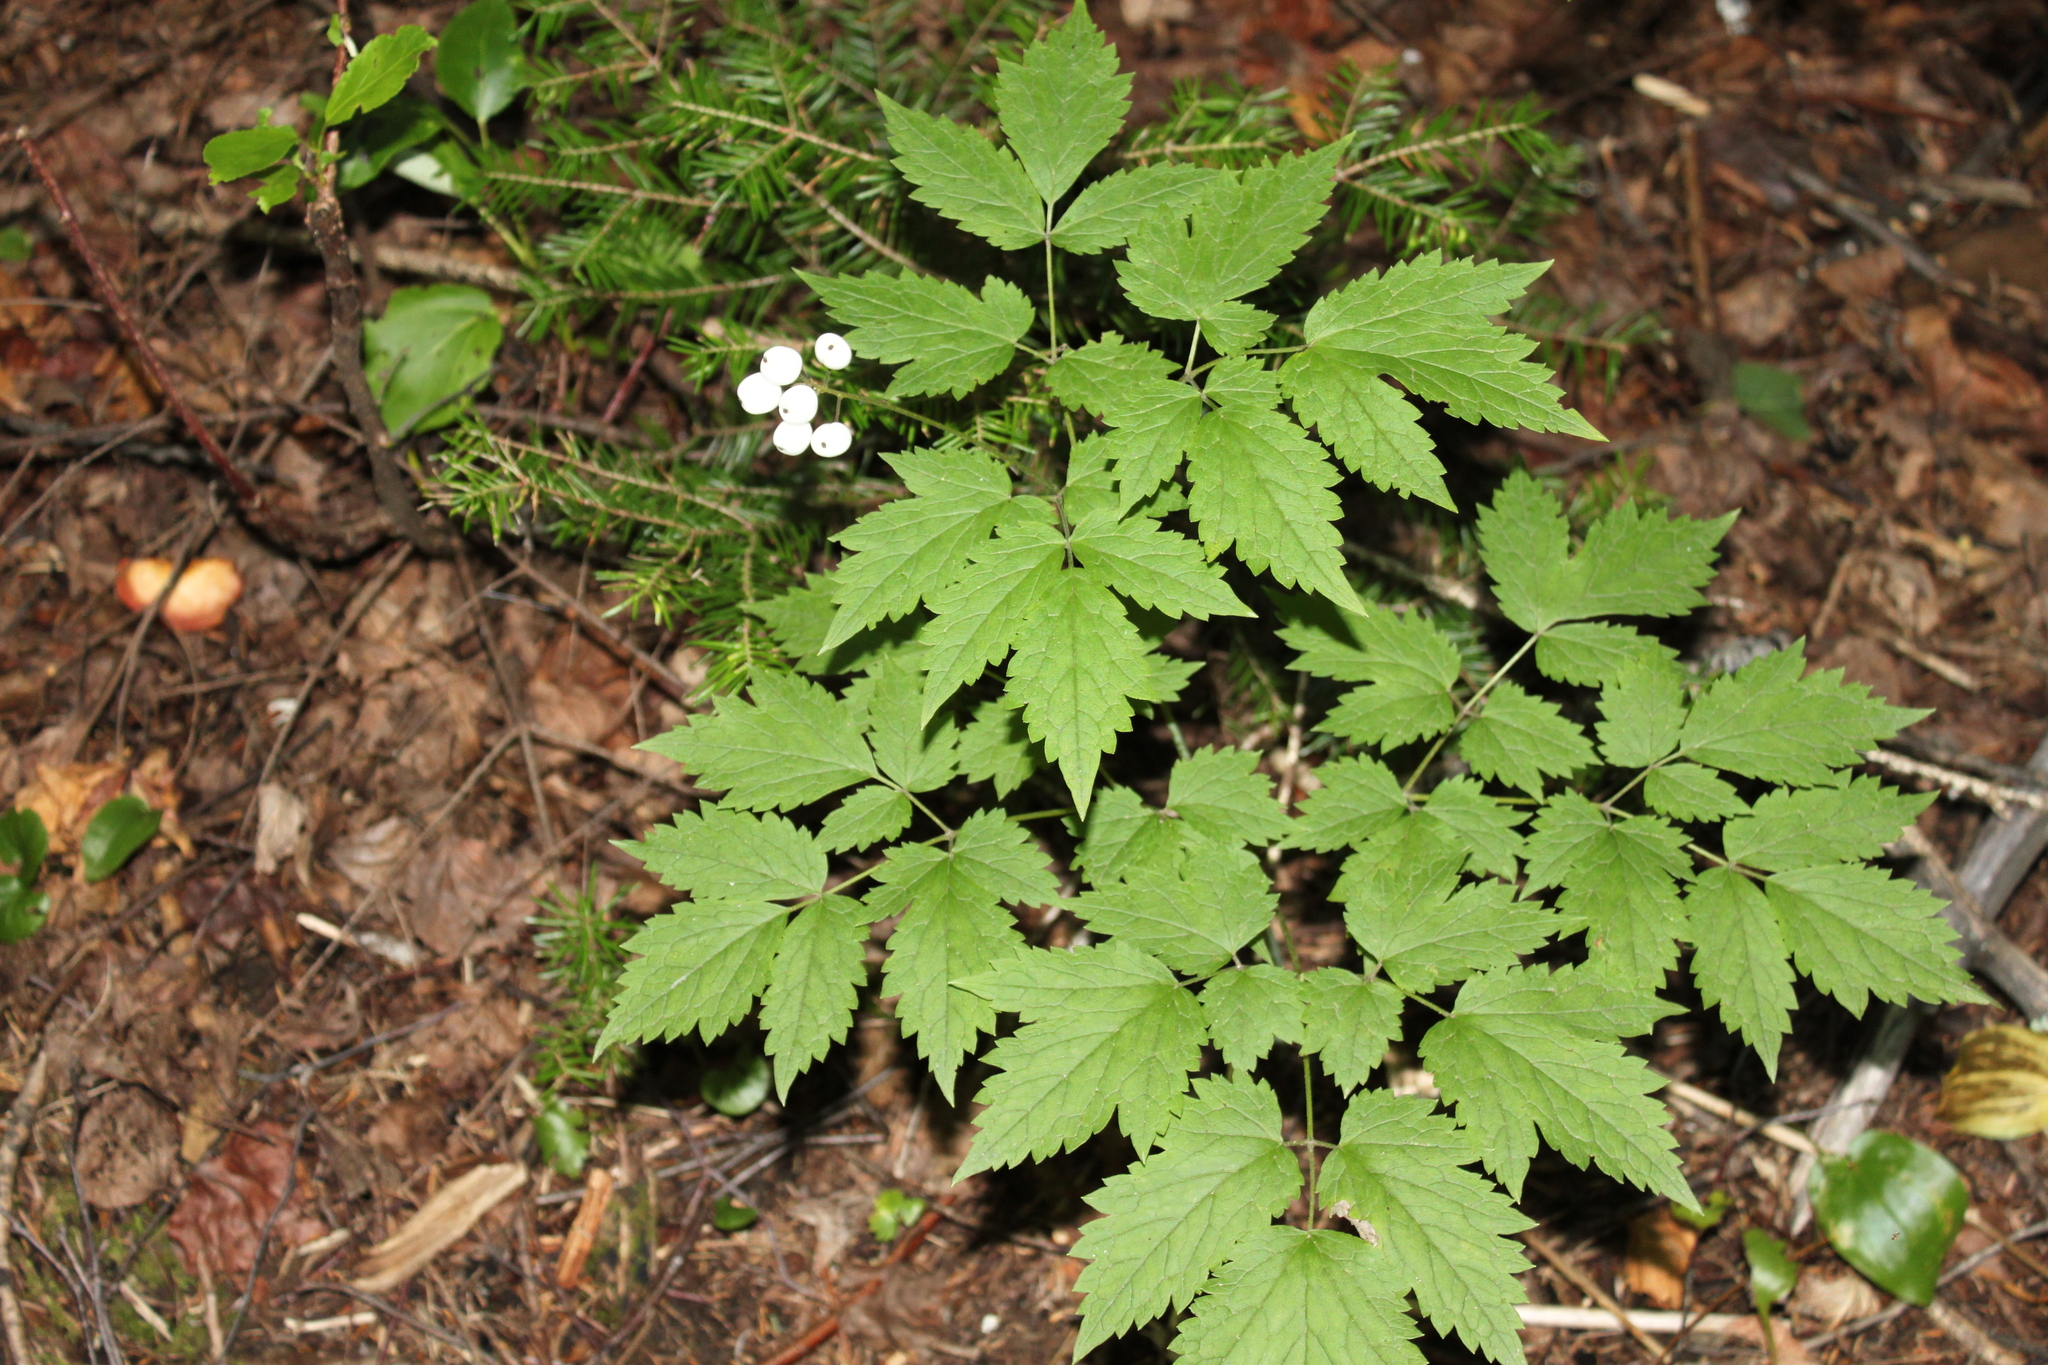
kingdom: Plantae
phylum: Tracheophyta
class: Magnoliopsida
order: Ranunculales
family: Ranunculaceae
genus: Actaea
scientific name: Actaea rubra
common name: Red baneberry
